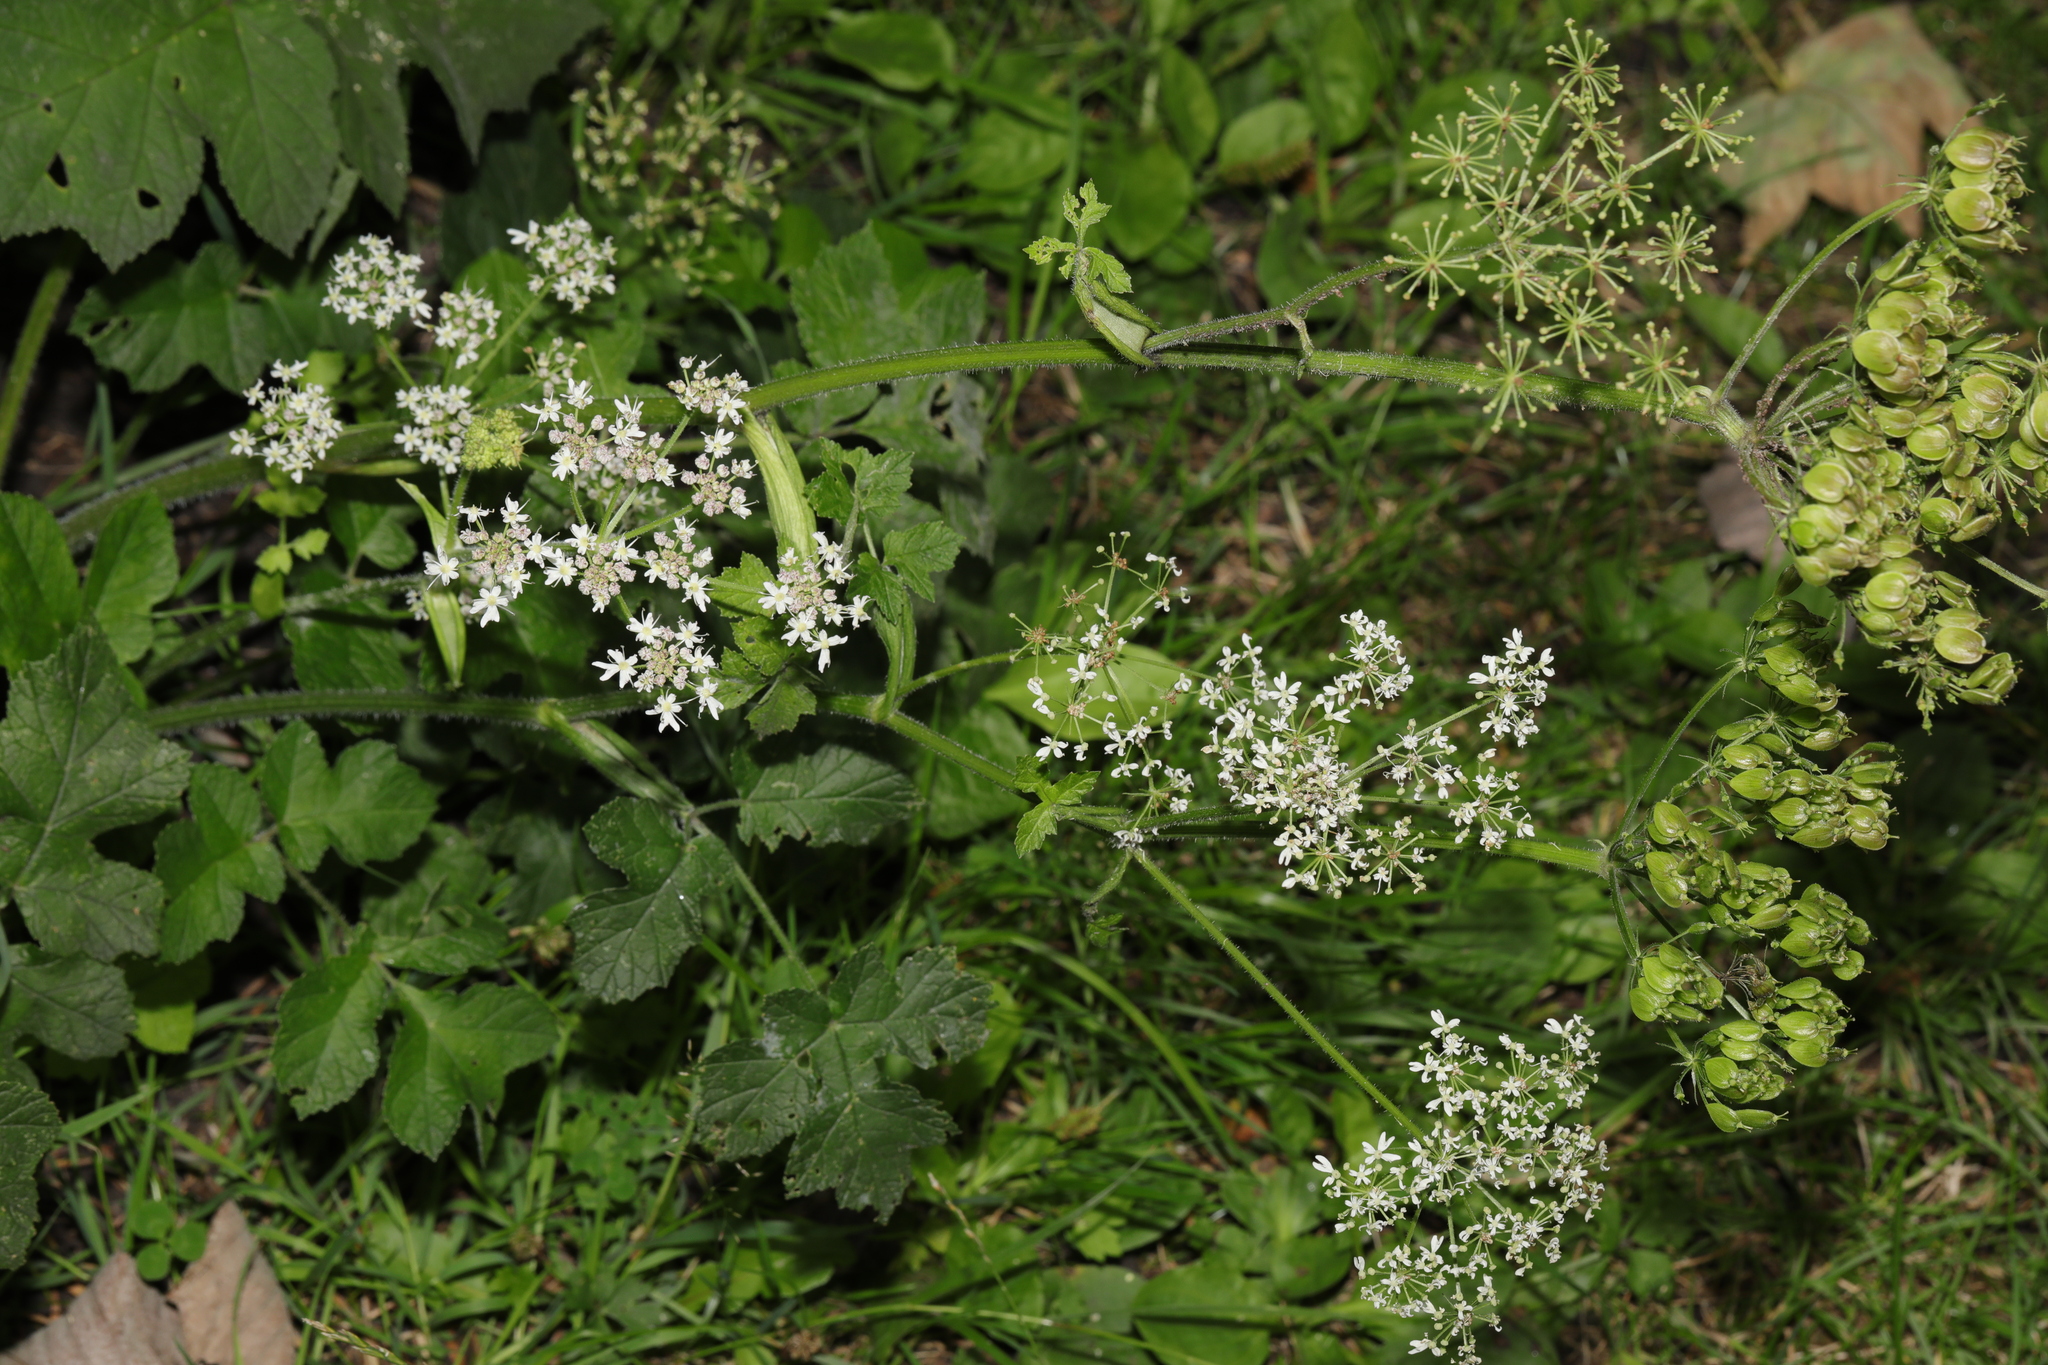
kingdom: Plantae
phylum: Tracheophyta
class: Magnoliopsida
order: Apiales
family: Apiaceae
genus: Heracleum
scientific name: Heracleum sphondylium
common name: Hogweed
